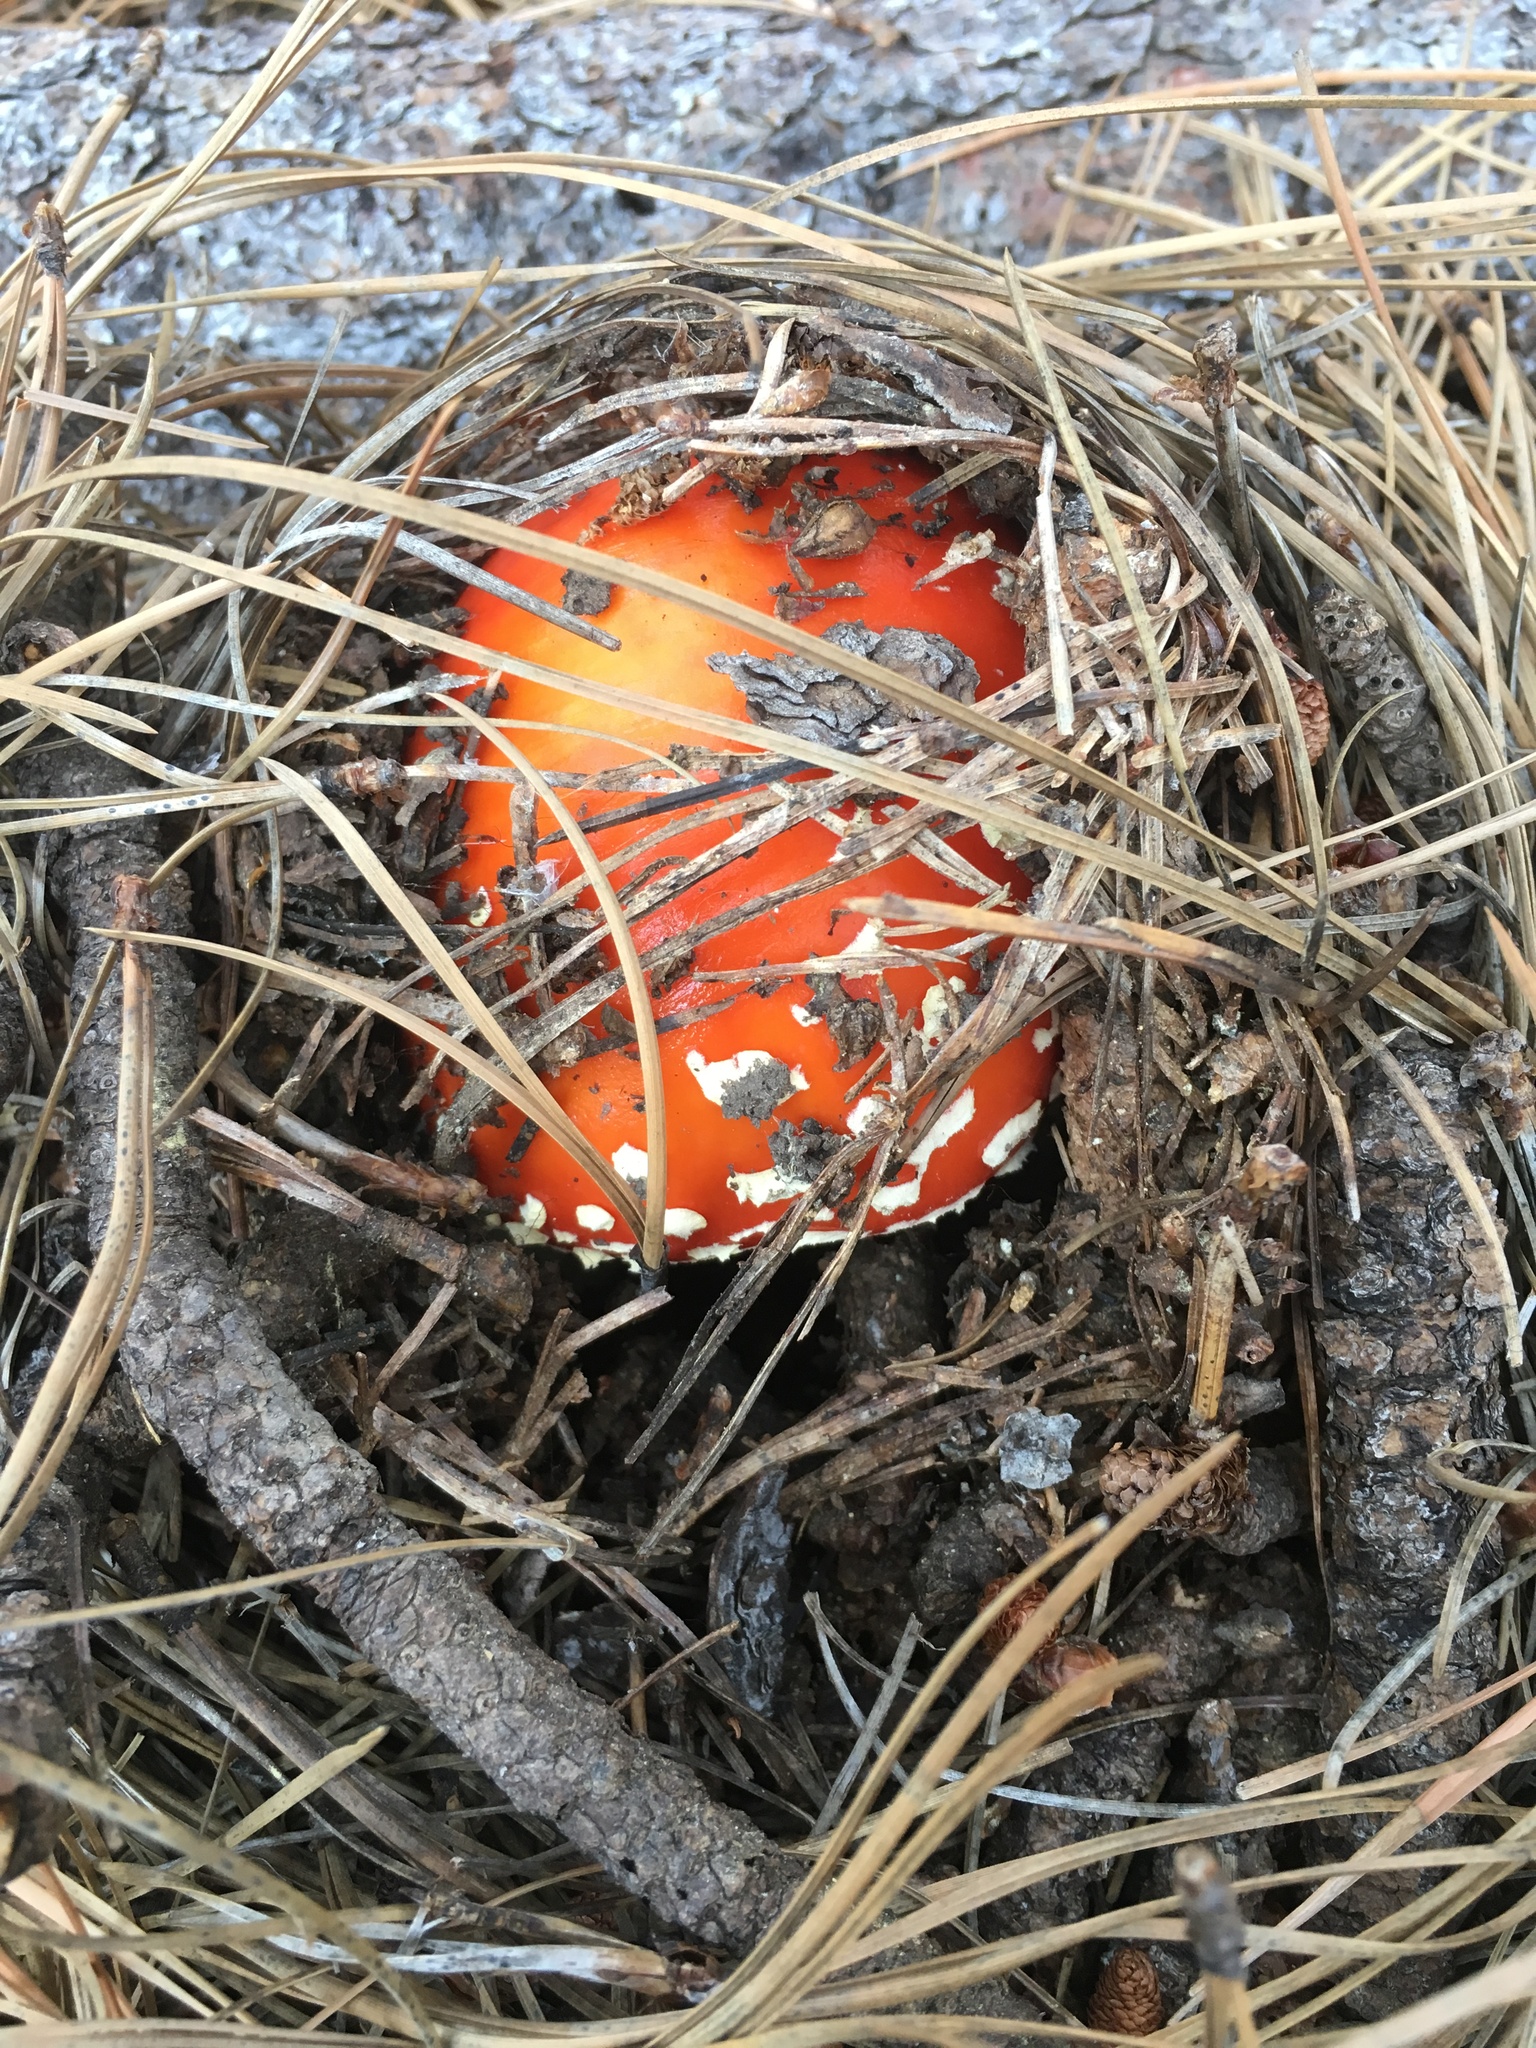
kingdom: Fungi
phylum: Basidiomycota
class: Agaricomycetes
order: Agaricales
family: Amanitaceae
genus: Amanita
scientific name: Amanita muscaria
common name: Fly agaric
